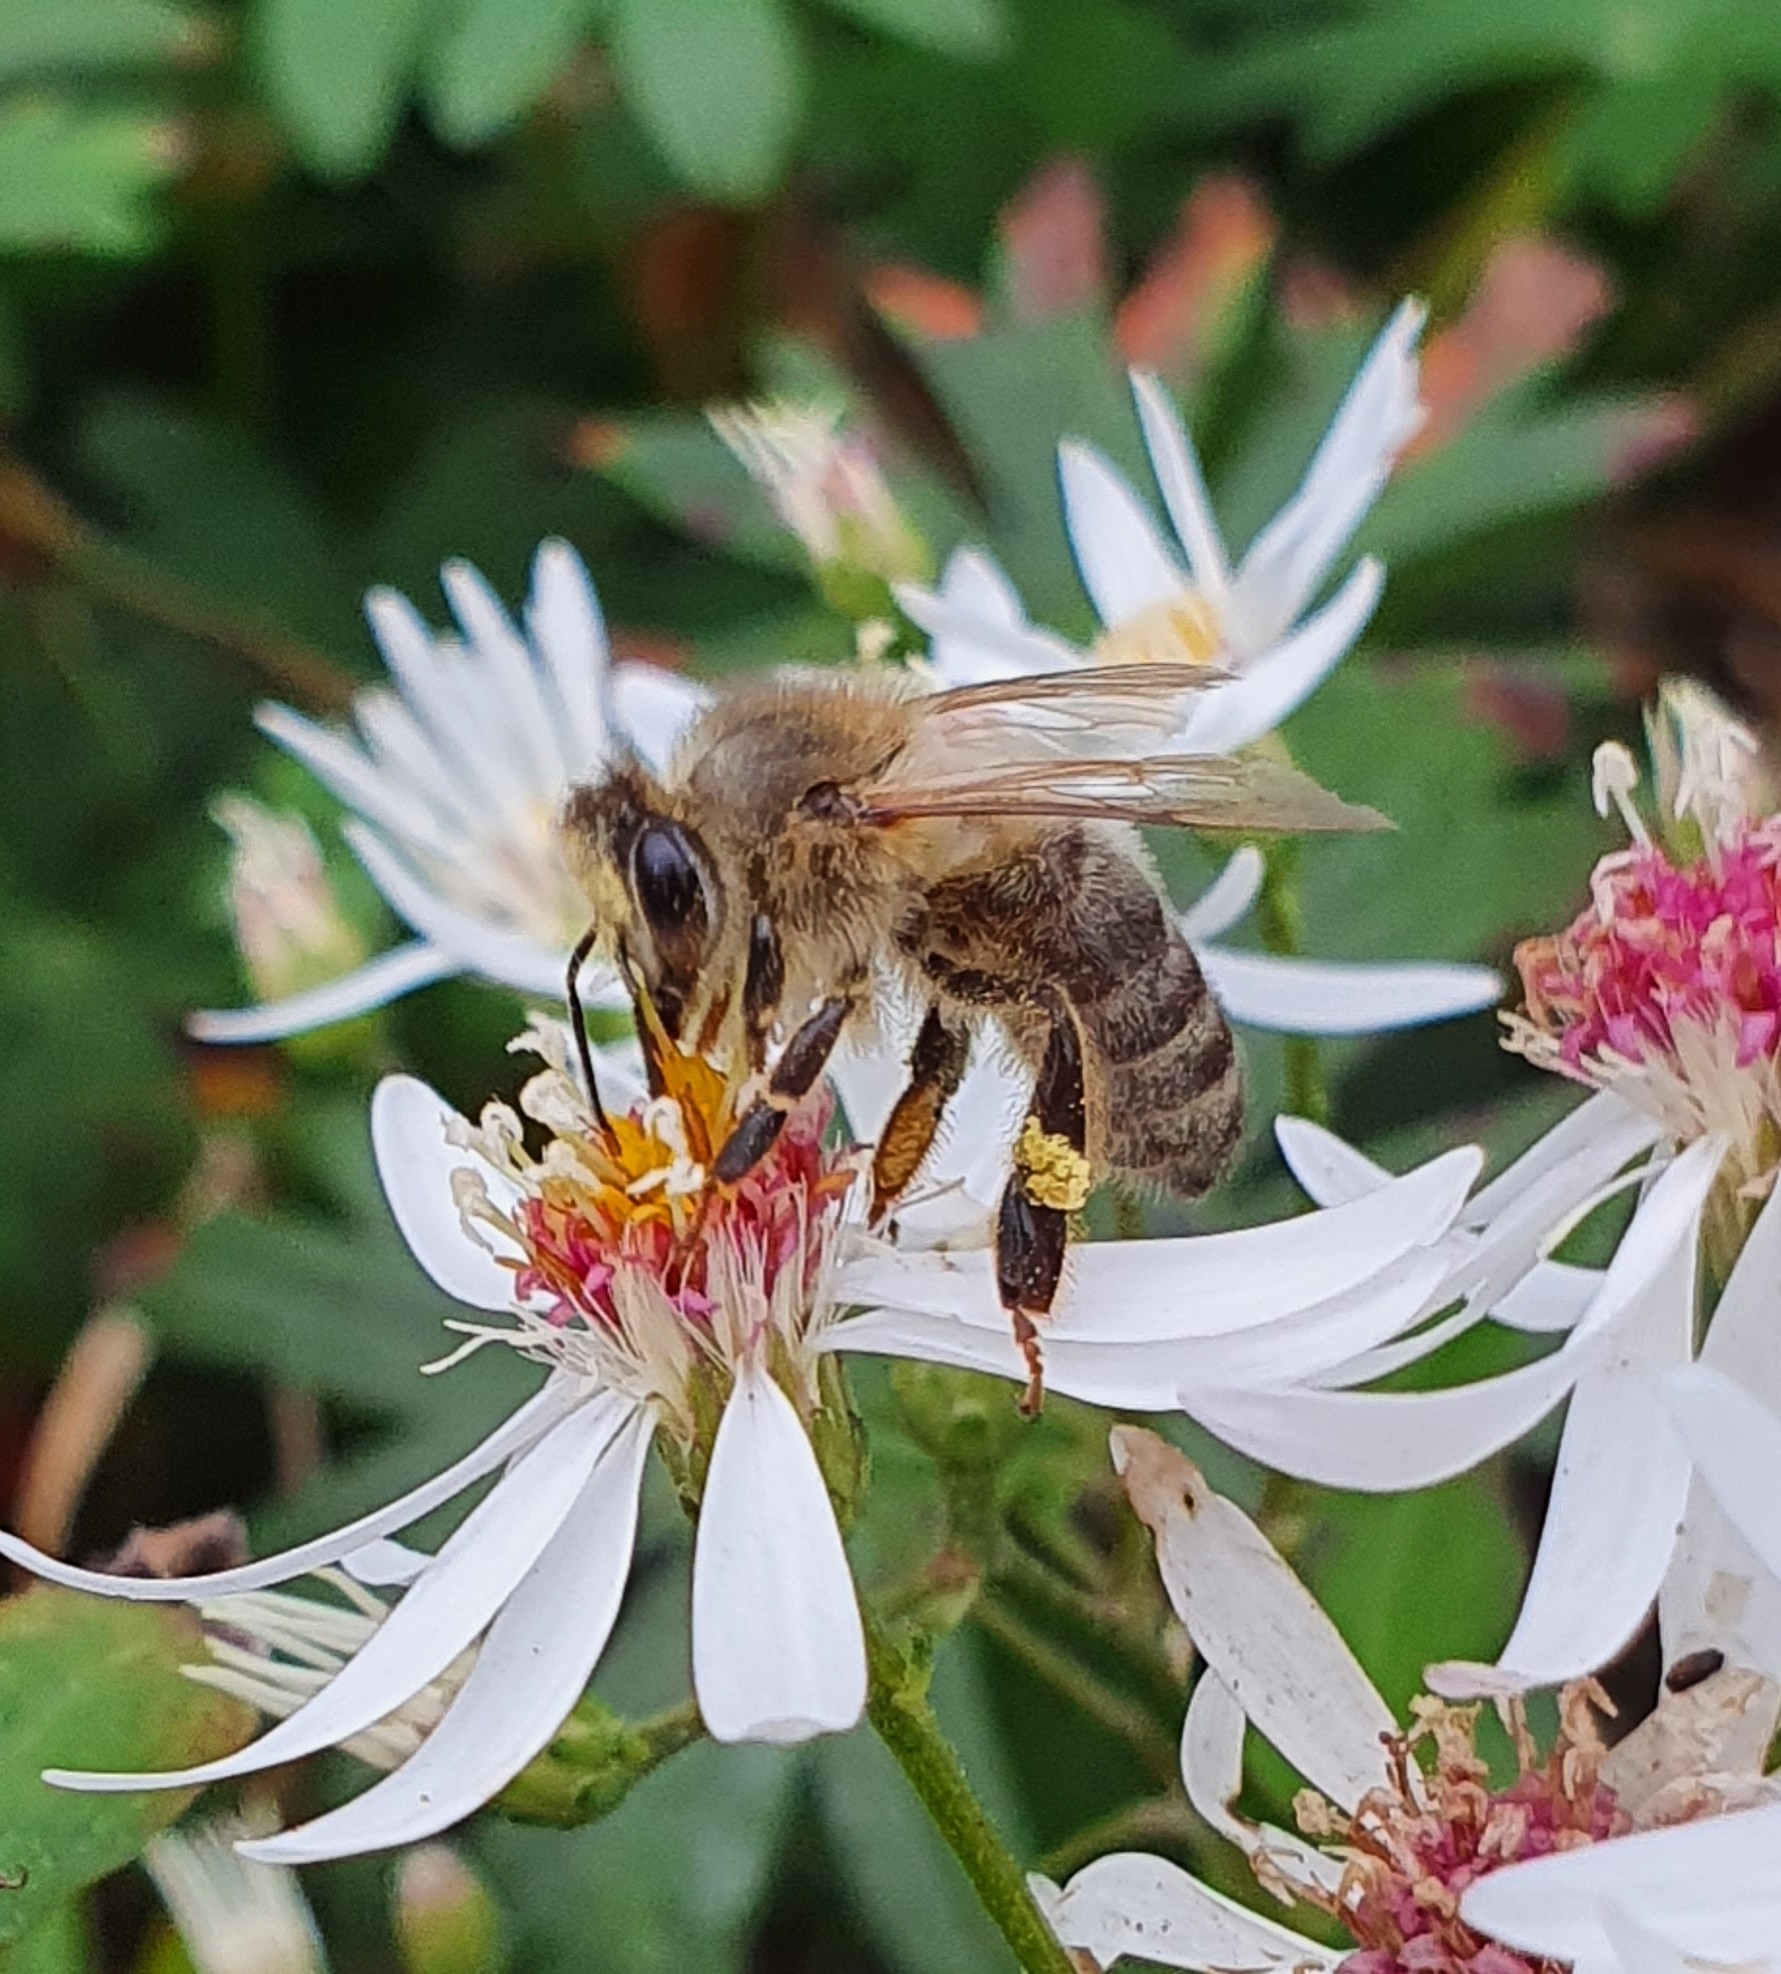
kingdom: Animalia
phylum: Arthropoda
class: Insecta
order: Hymenoptera
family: Apidae
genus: Apis
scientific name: Apis mellifera
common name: Honey bee
